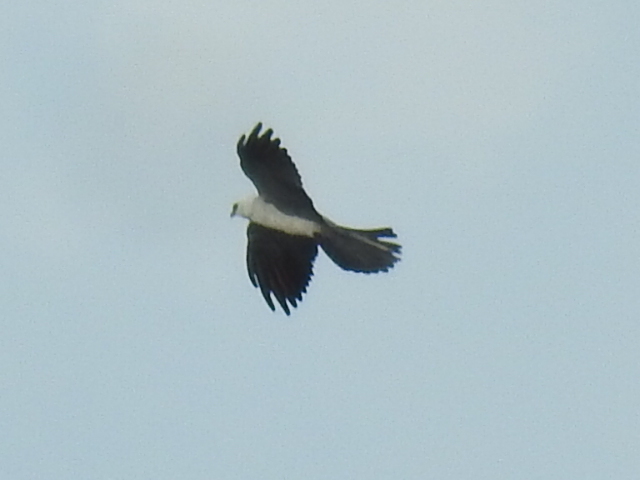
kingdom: Animalia
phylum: Chordata
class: Aves
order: Accipitriformes
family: Accipitridae
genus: Ictinia
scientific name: Ictinia mississippiensis
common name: Mississippi kite
